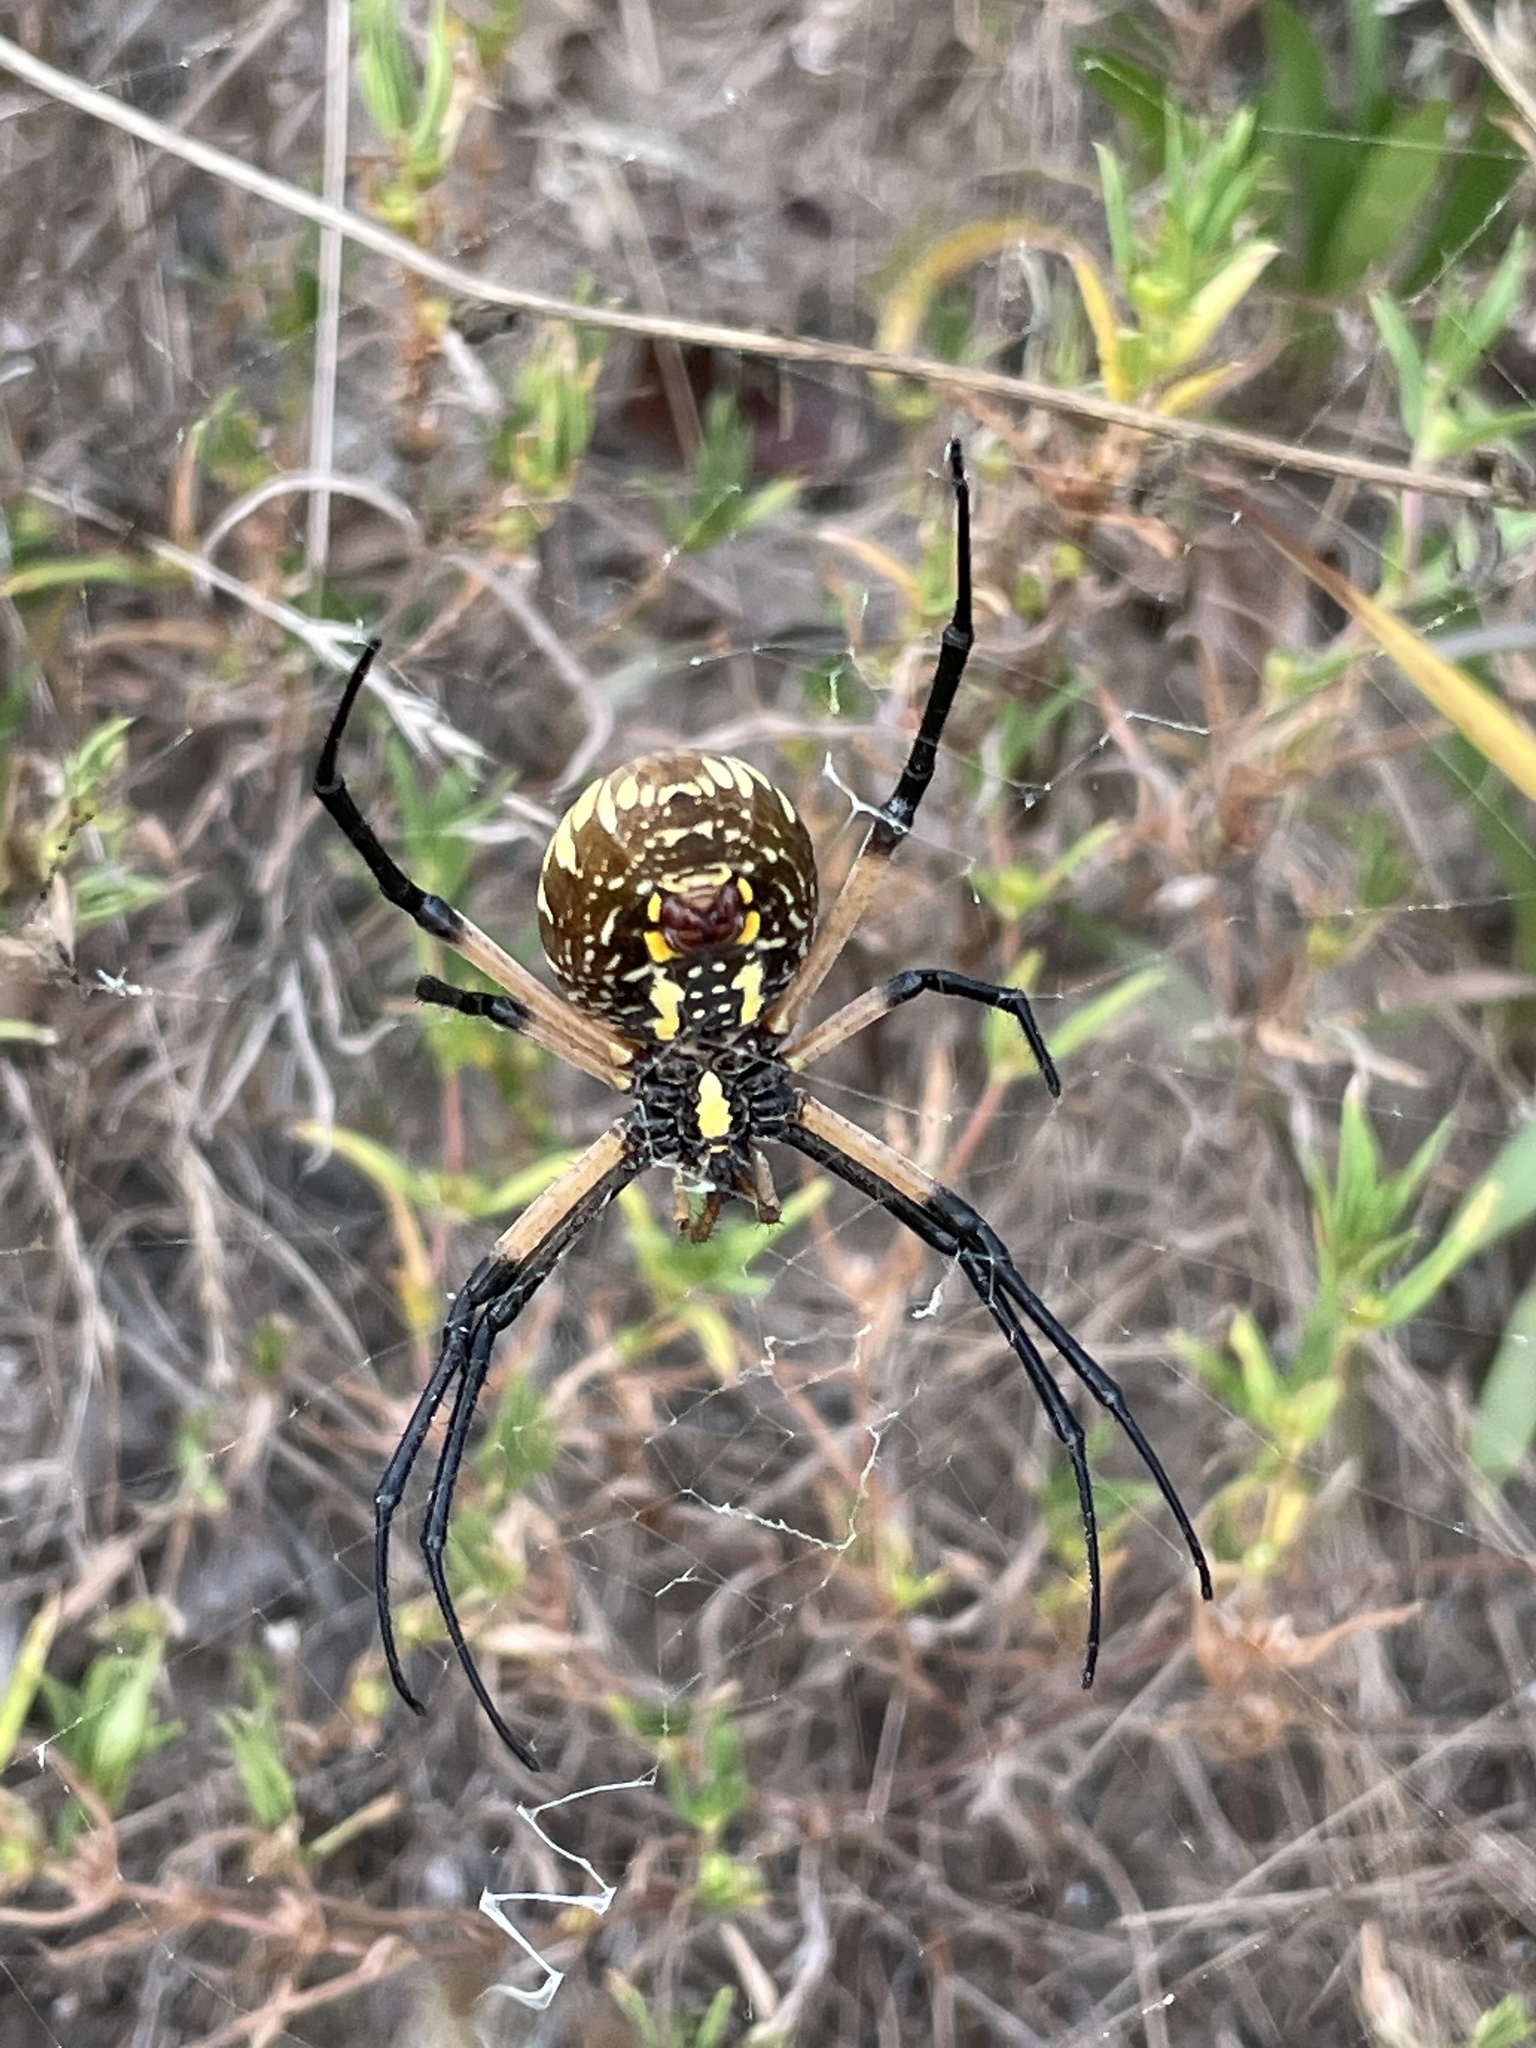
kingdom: Animalia
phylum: Arthropoda
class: Arachnida
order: Araneae
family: Araneidae
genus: Argiope
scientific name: Argiope aurantia
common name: Orb weavers
